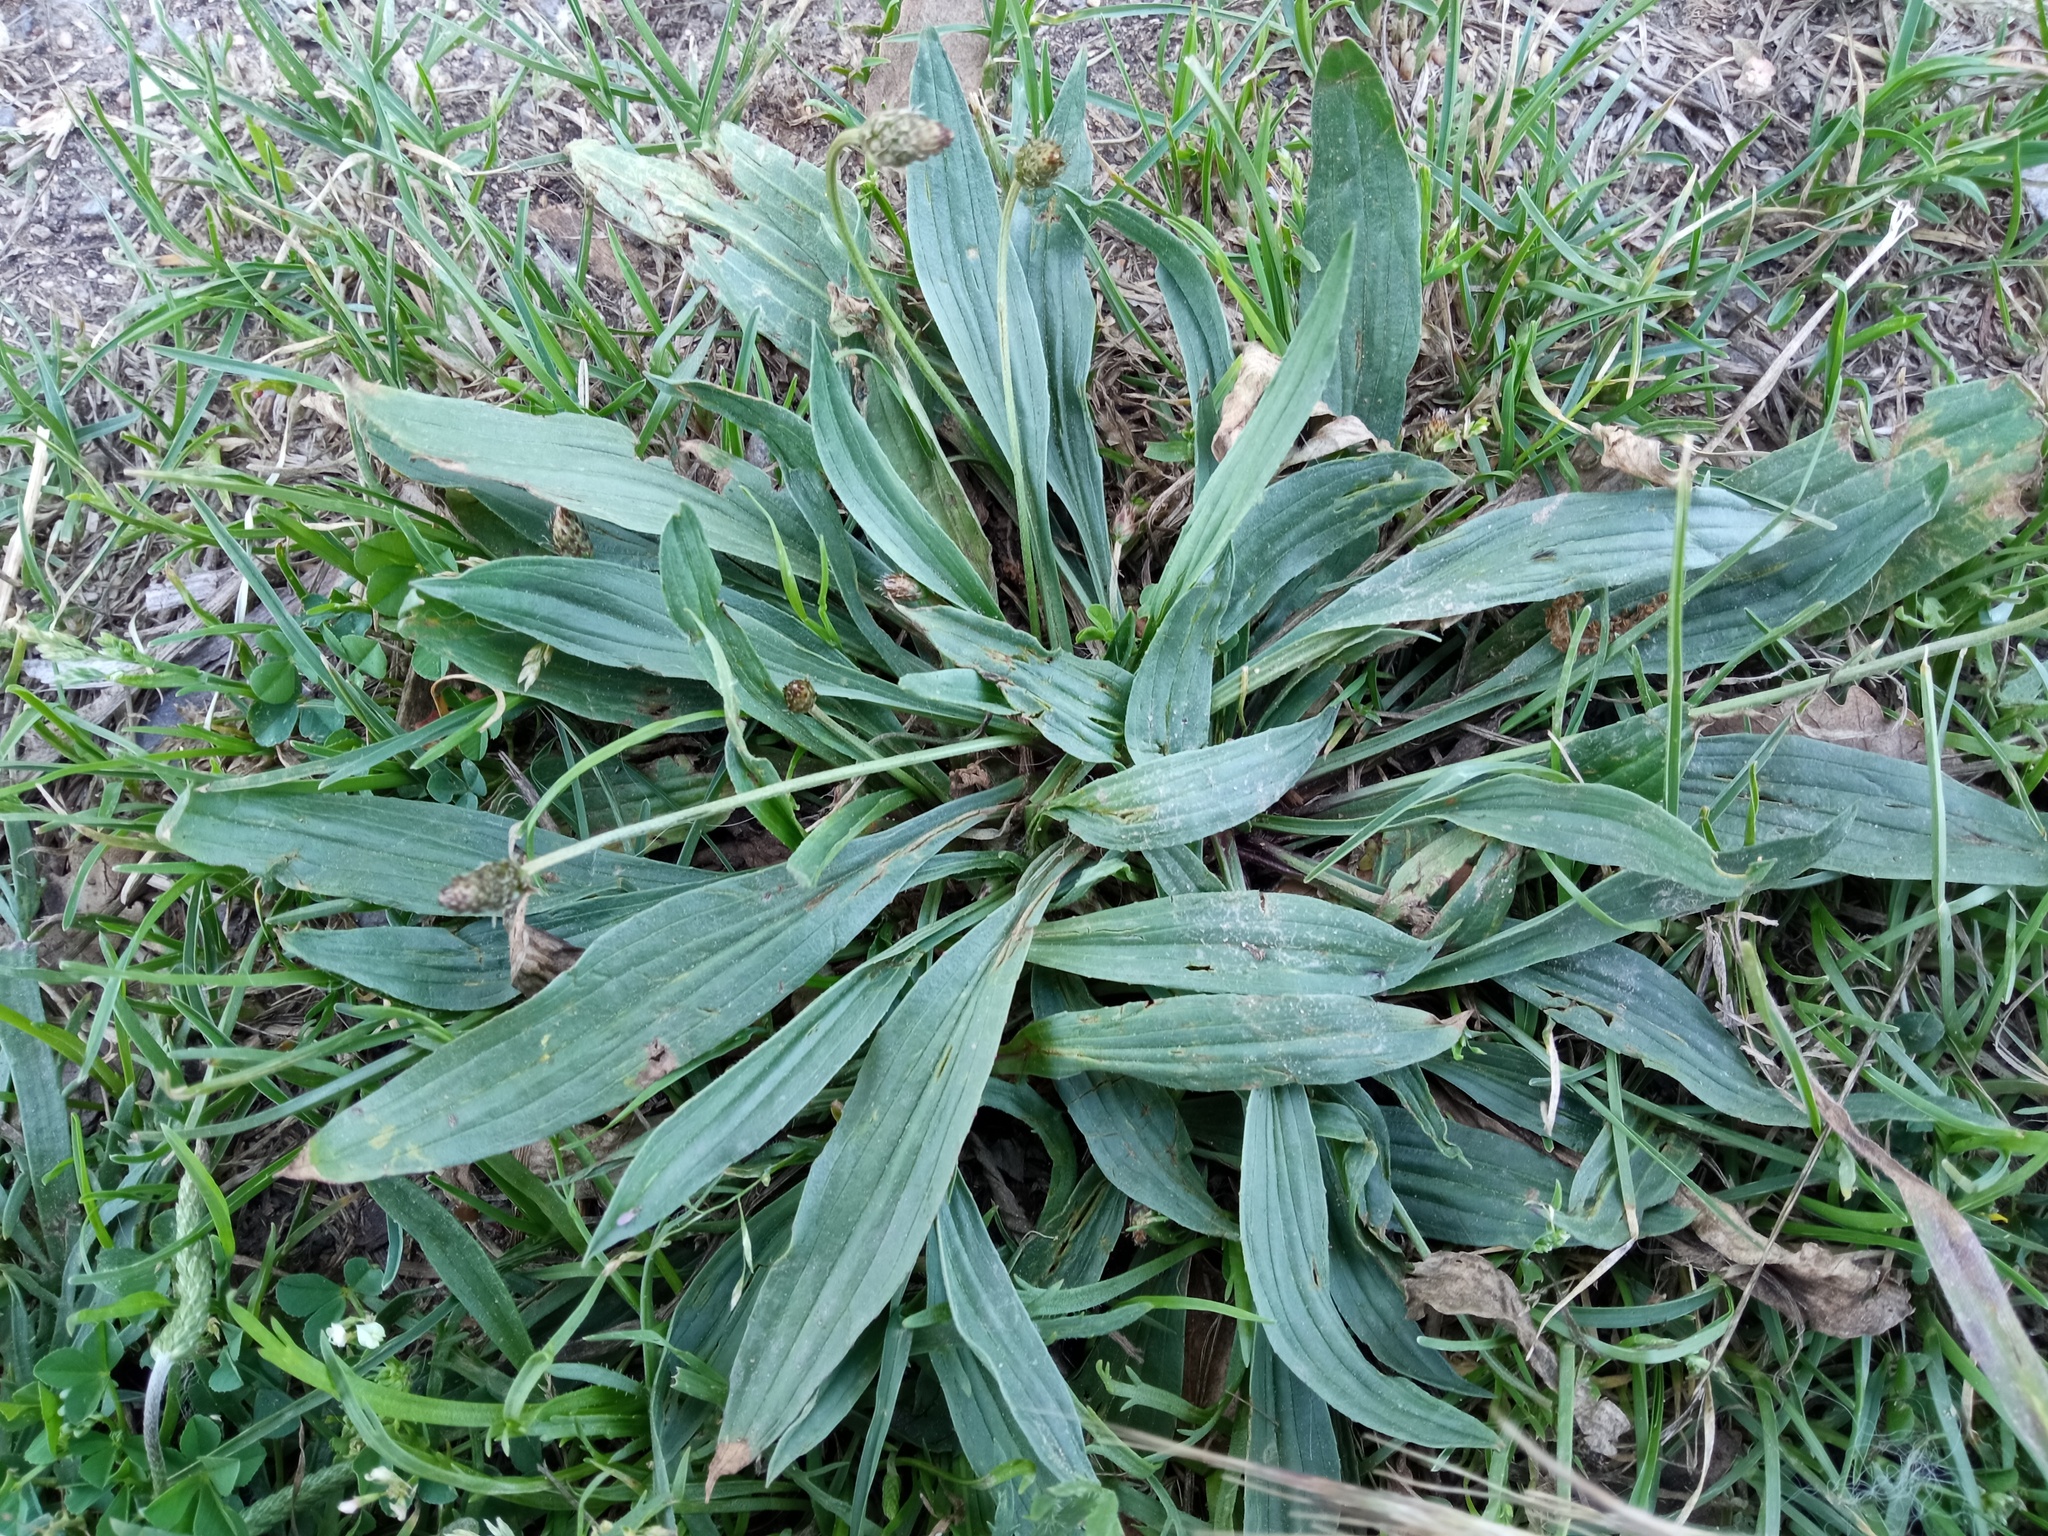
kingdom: Plantae
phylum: Tracheophyta
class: Magnoliopsida
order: Lamiales
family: Plantaginaceae
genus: Plantago
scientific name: Plantago lanceolata
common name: Ribwort plantain
